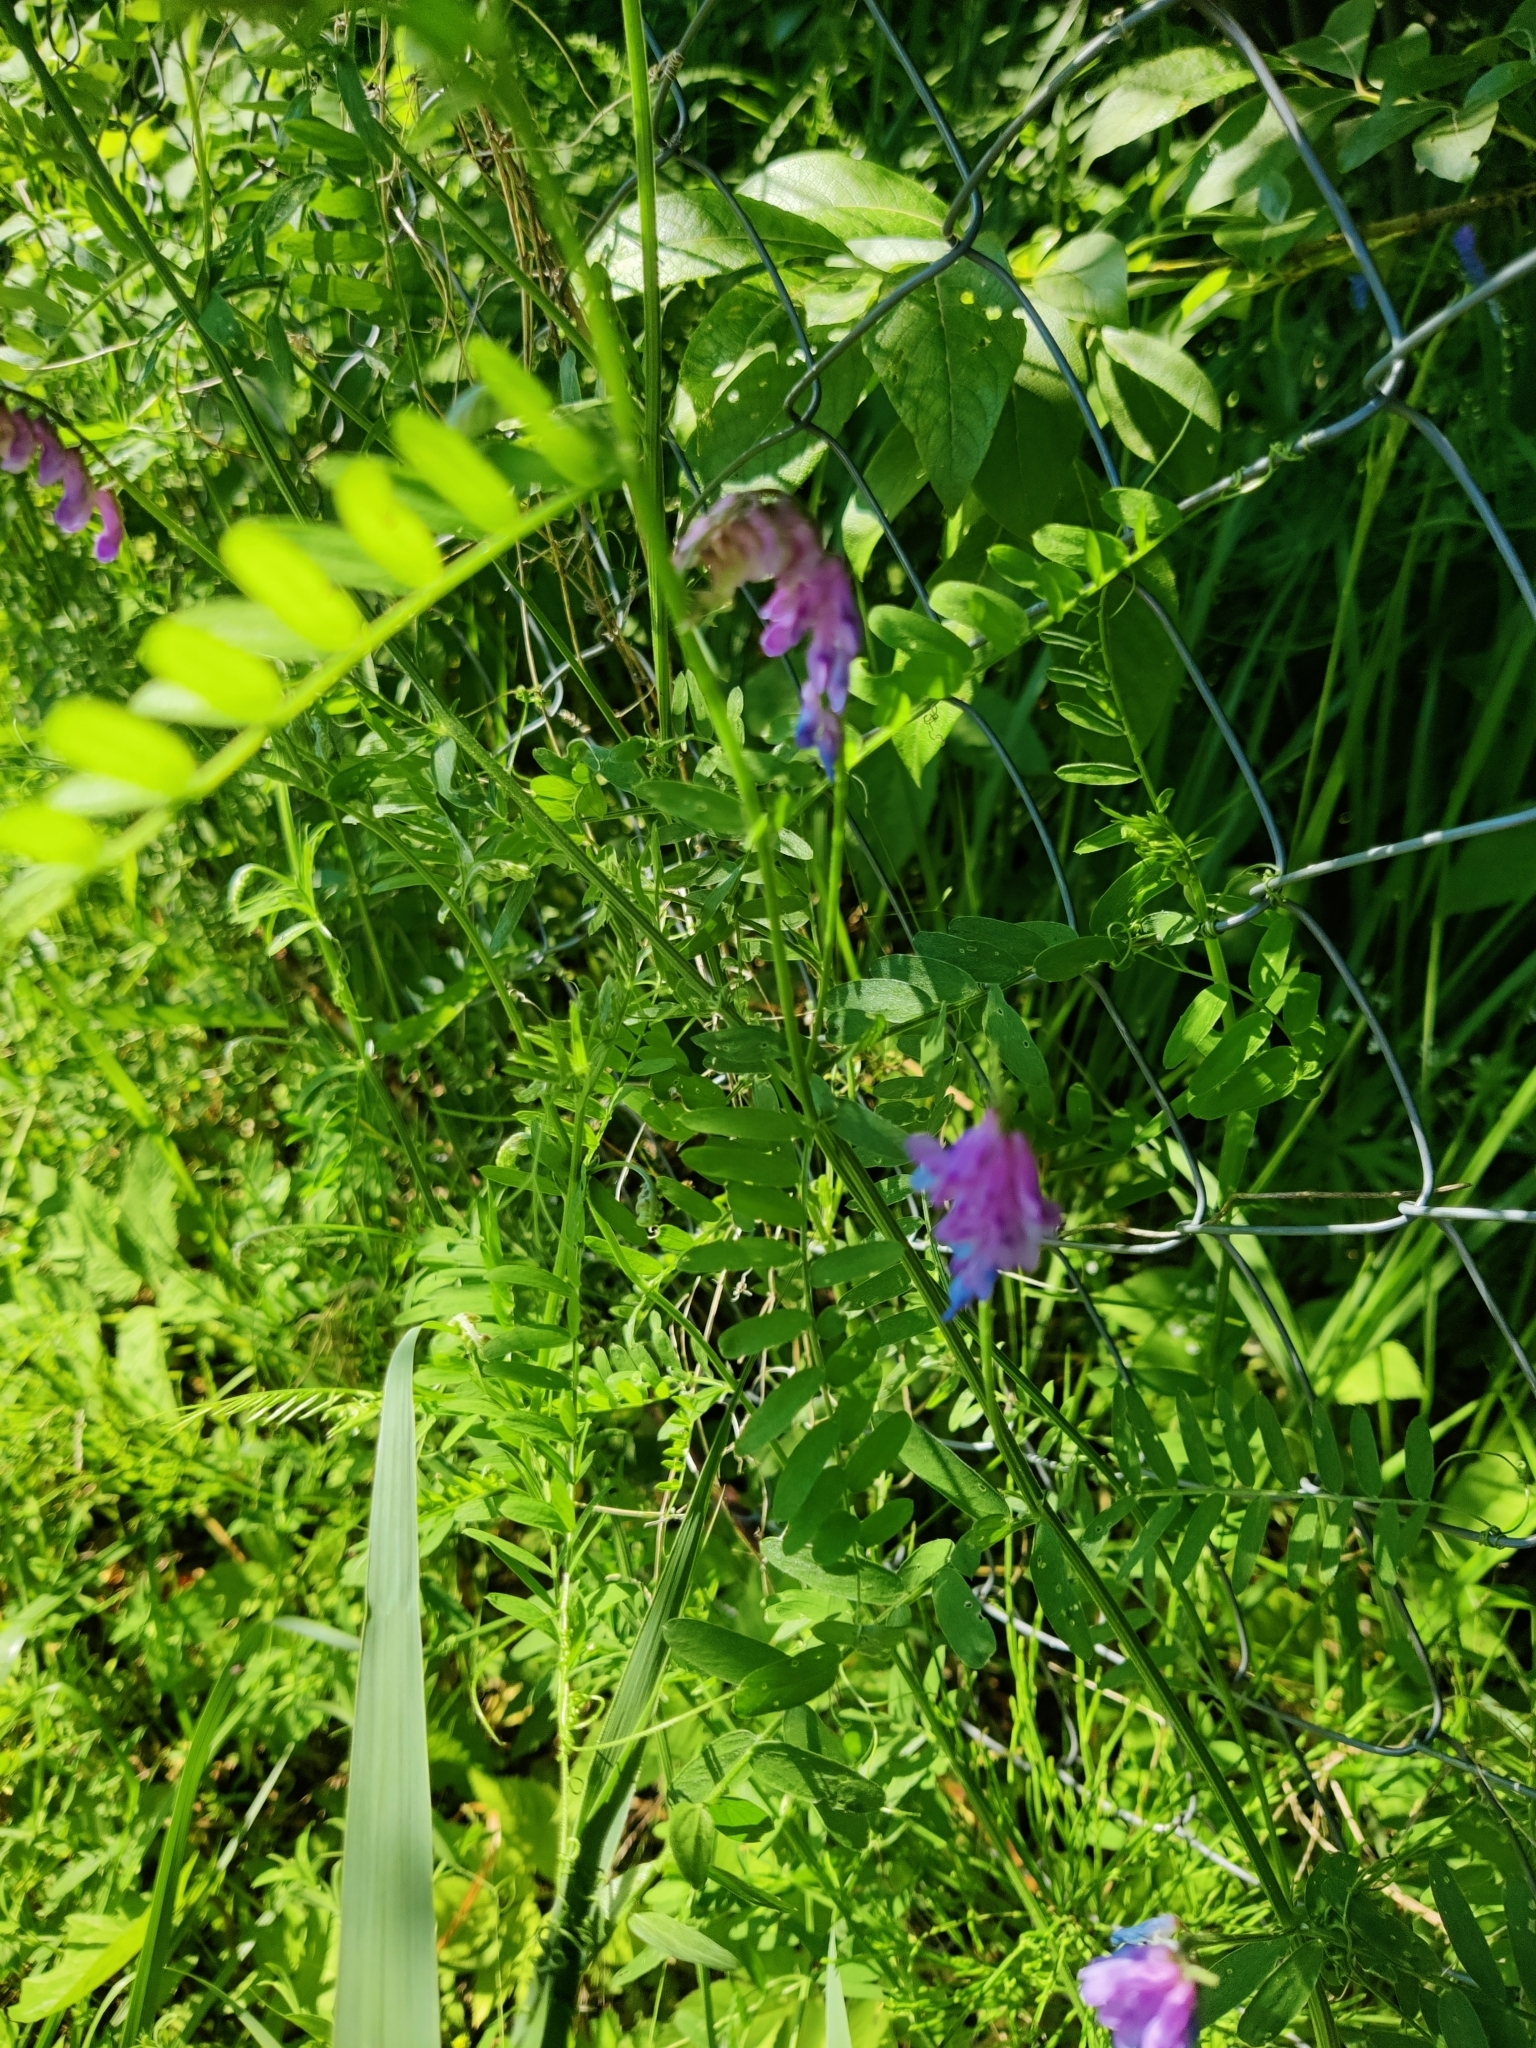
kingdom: Plantae
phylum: Tracheophyta
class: Magnoliopsida
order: Fabales
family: Fabaceae
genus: Vicia
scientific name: Vicia cracca
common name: Bird vetch
